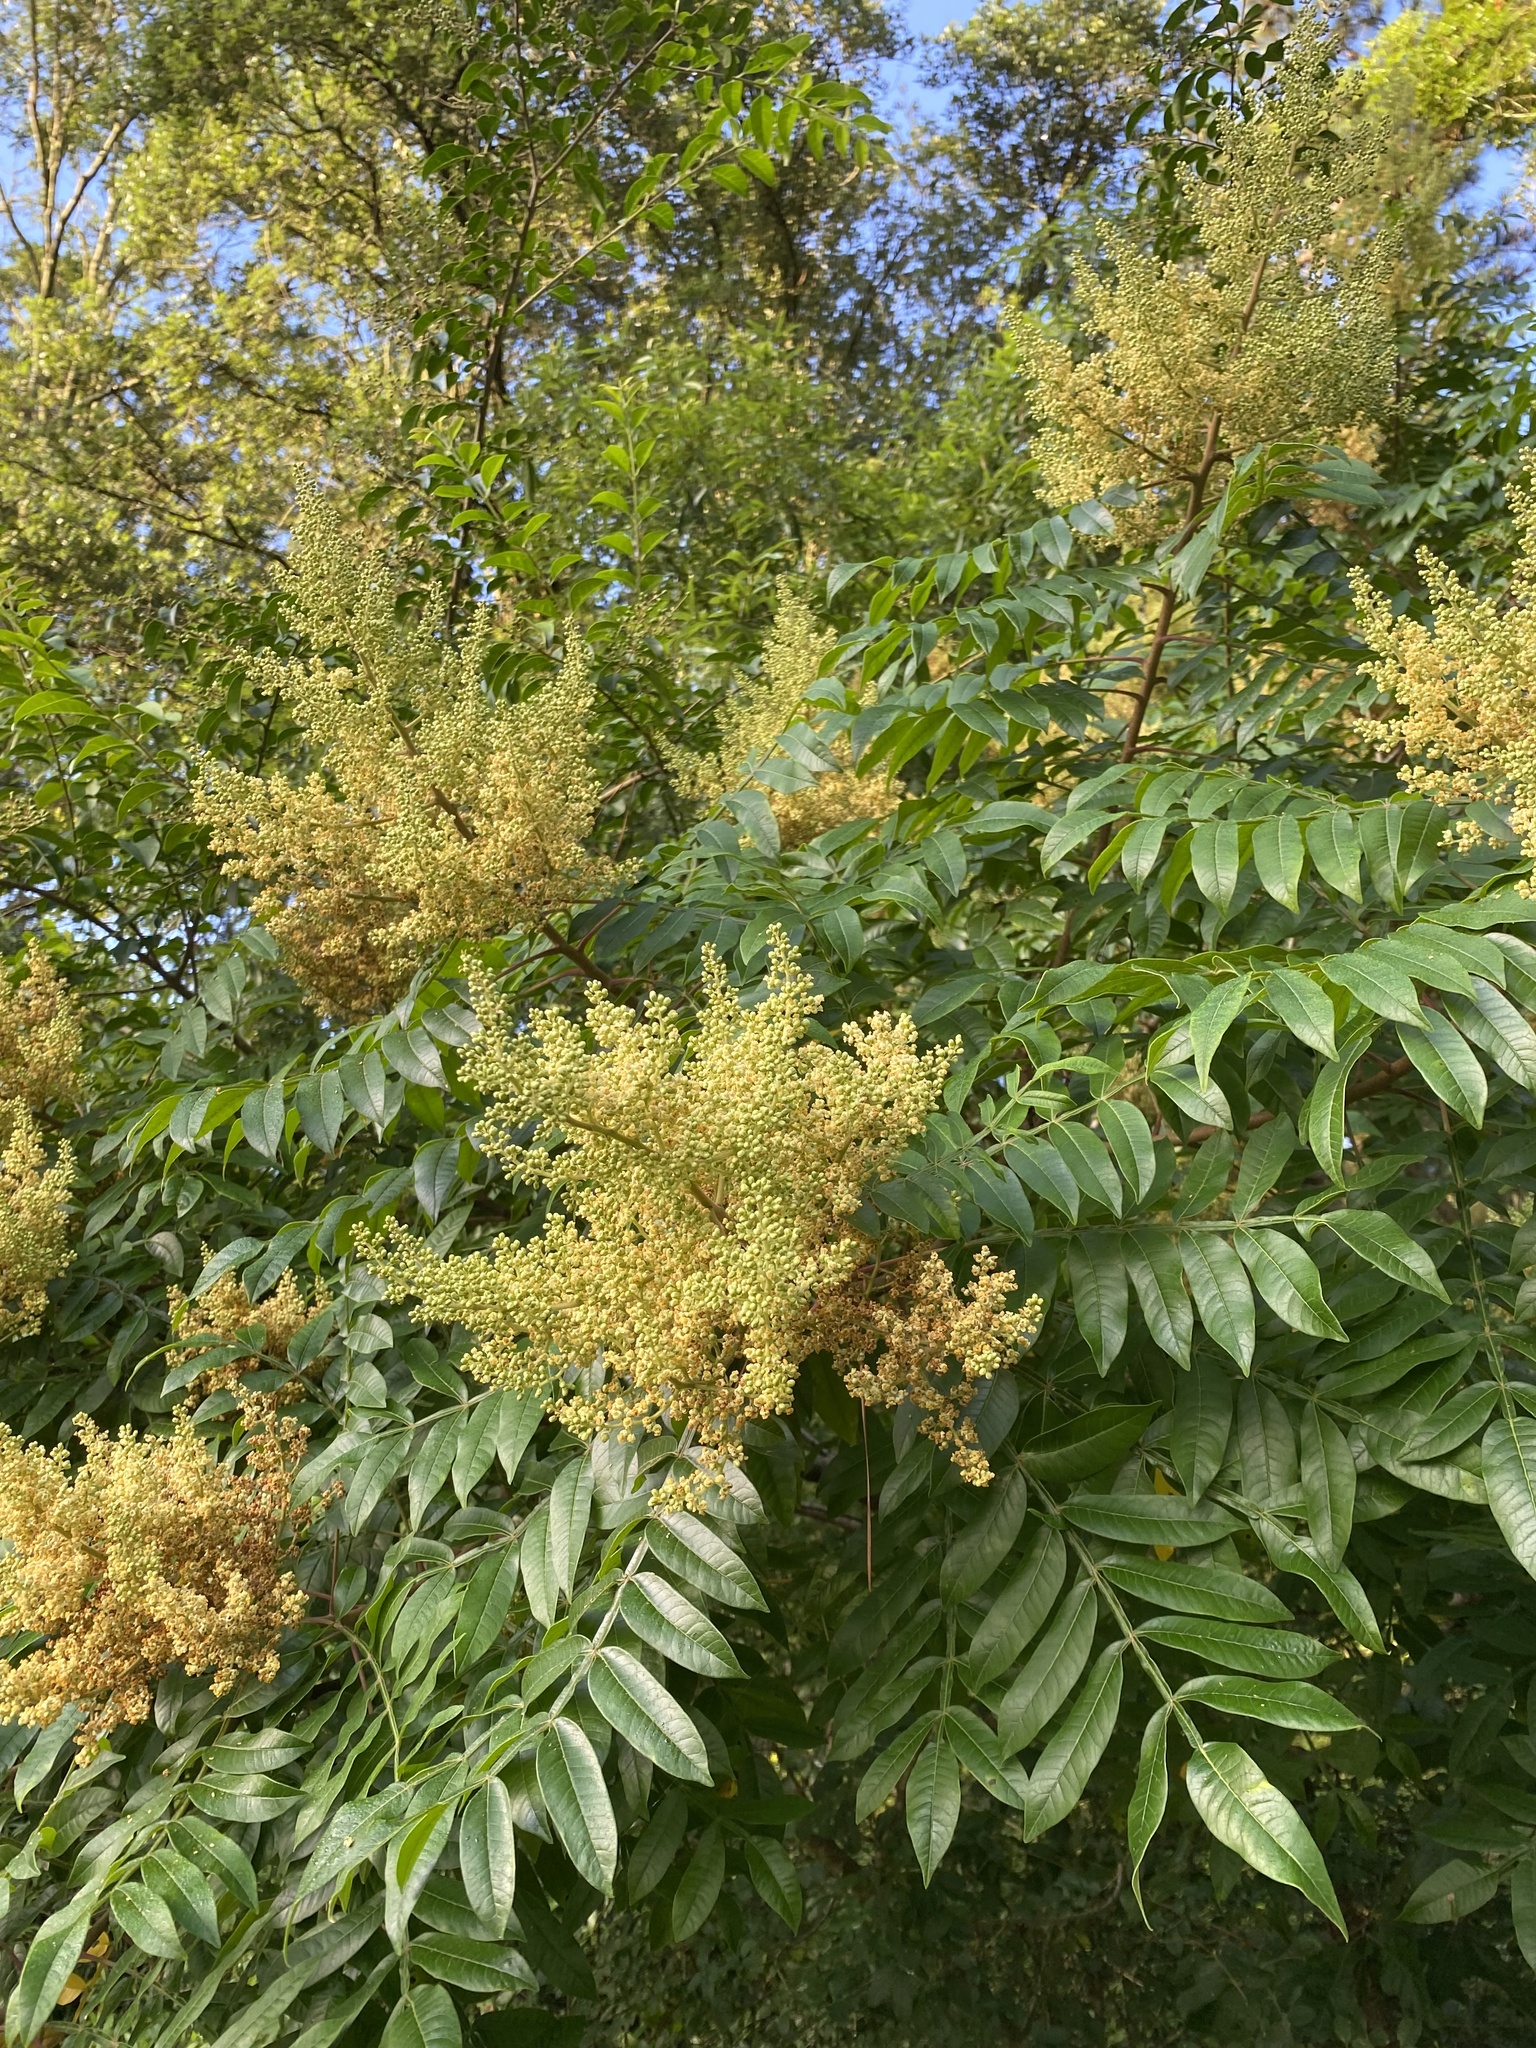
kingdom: Plantae
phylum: Tracheophyta
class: Magnoliopsida
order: Sapindales
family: Anacardiaceae
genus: Rhus
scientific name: Rhus copallina
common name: Shining sumac
